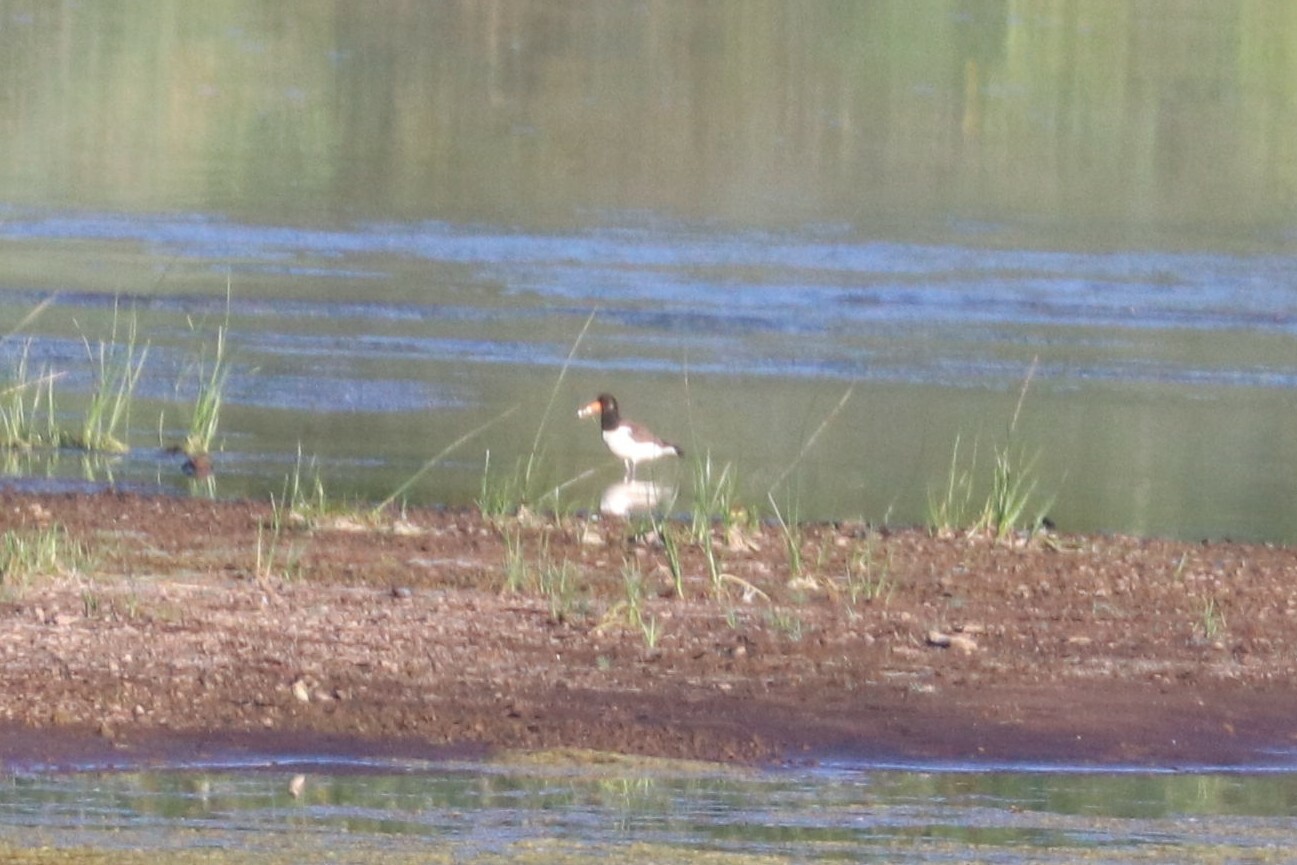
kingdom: Animalia
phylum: Chordata
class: Aves
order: Charadriiformes
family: Haematopodidae
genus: Haematopus
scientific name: Haematopus ostralegus
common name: Eurasian oystercatcher
